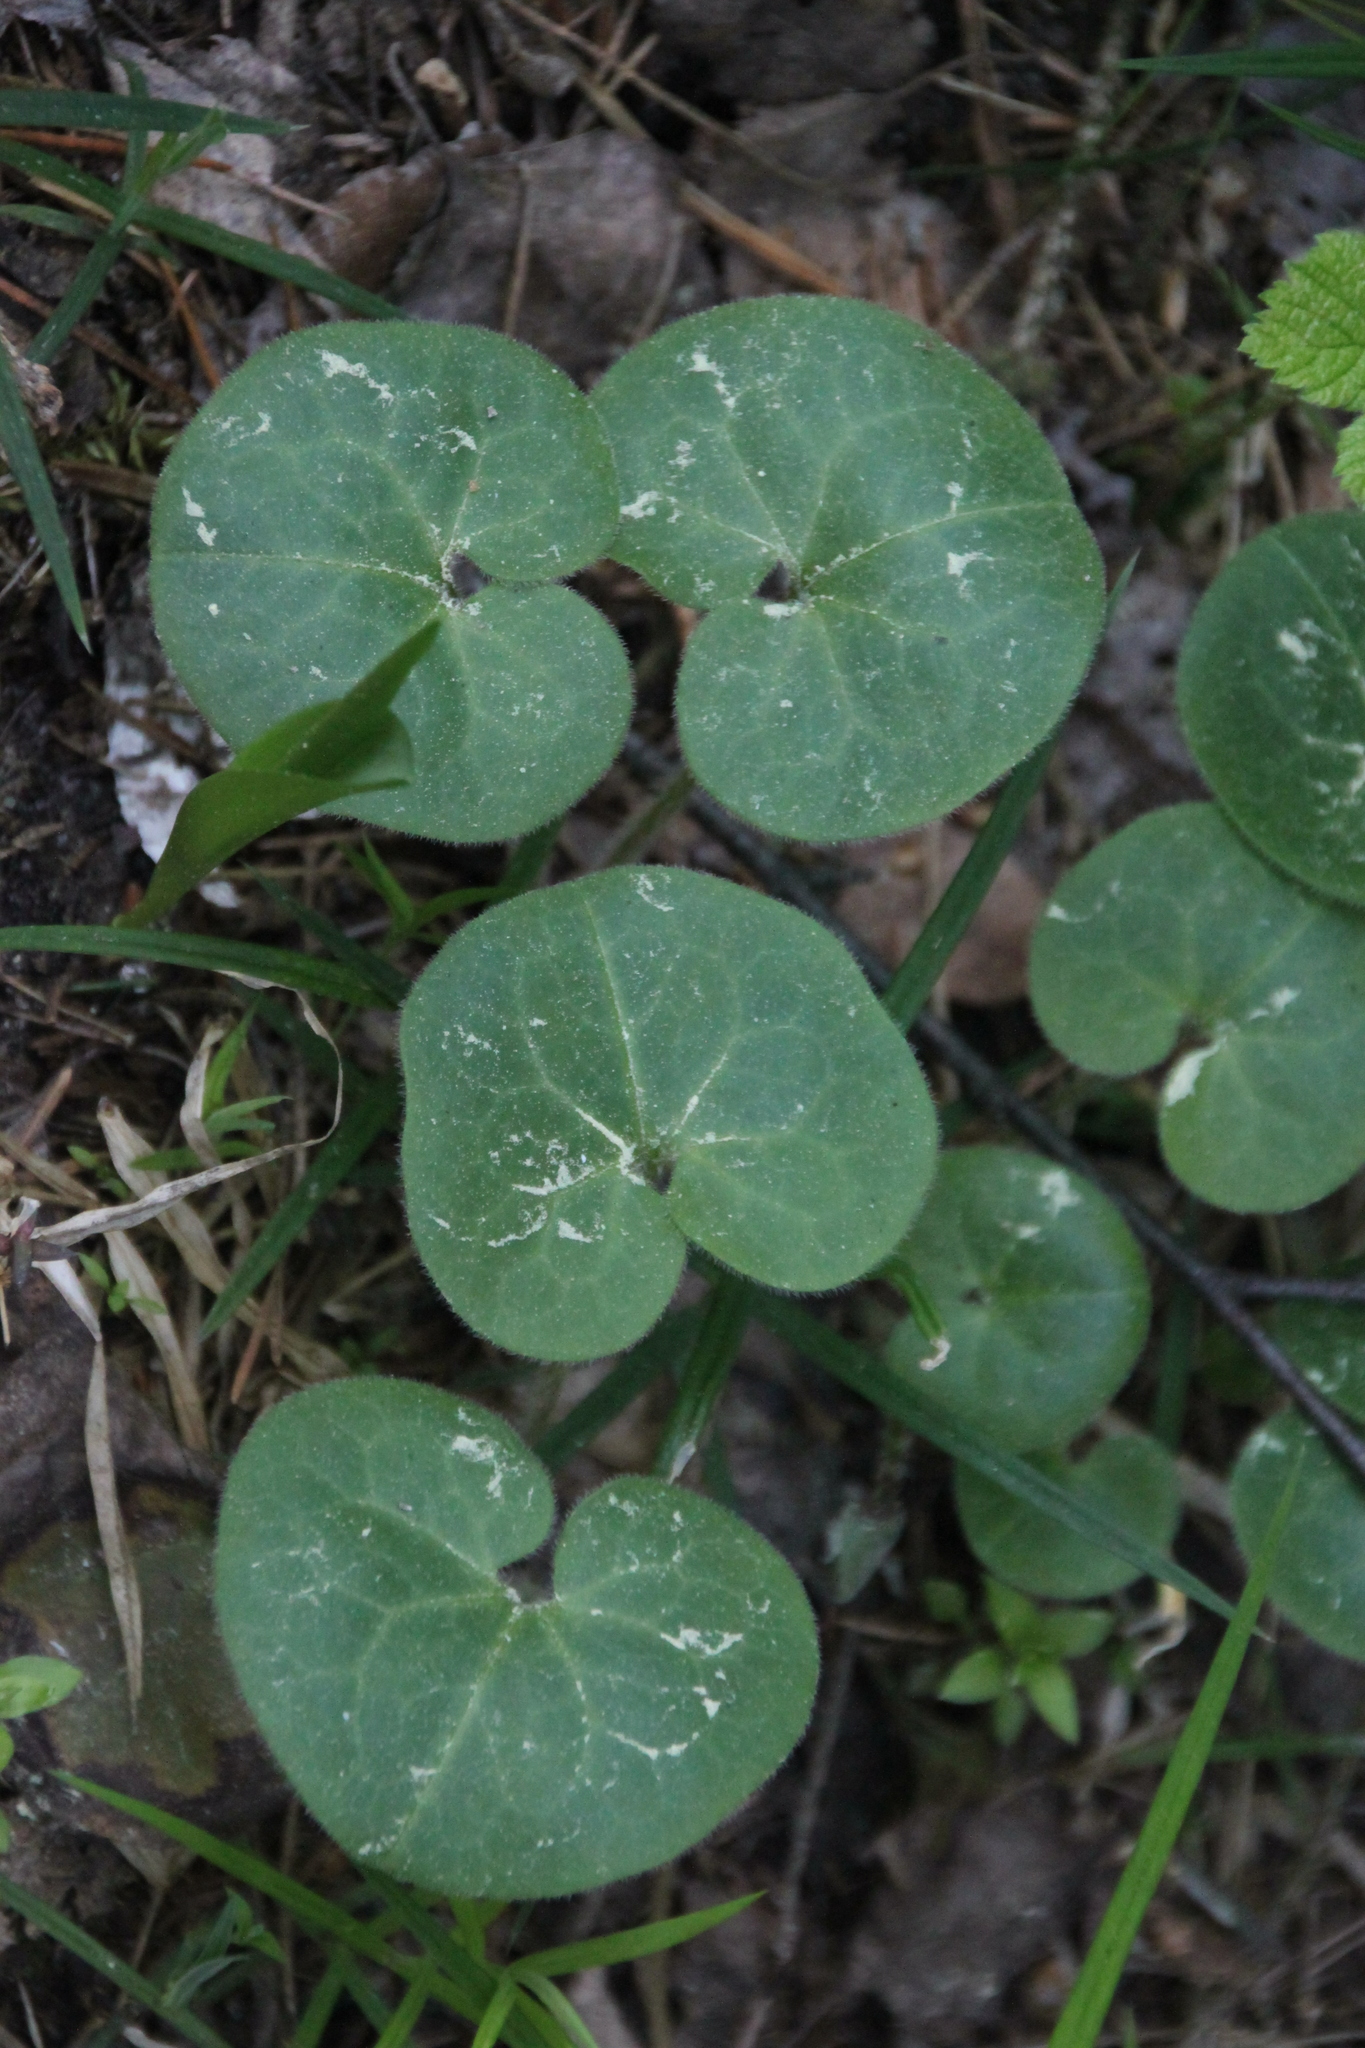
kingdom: Plantae
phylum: Tracheophyta
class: Magnoliopsida
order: Piperales
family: Aristolochiaceae
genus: Asarum
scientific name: Asarum europaeum
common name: Asarabacca
